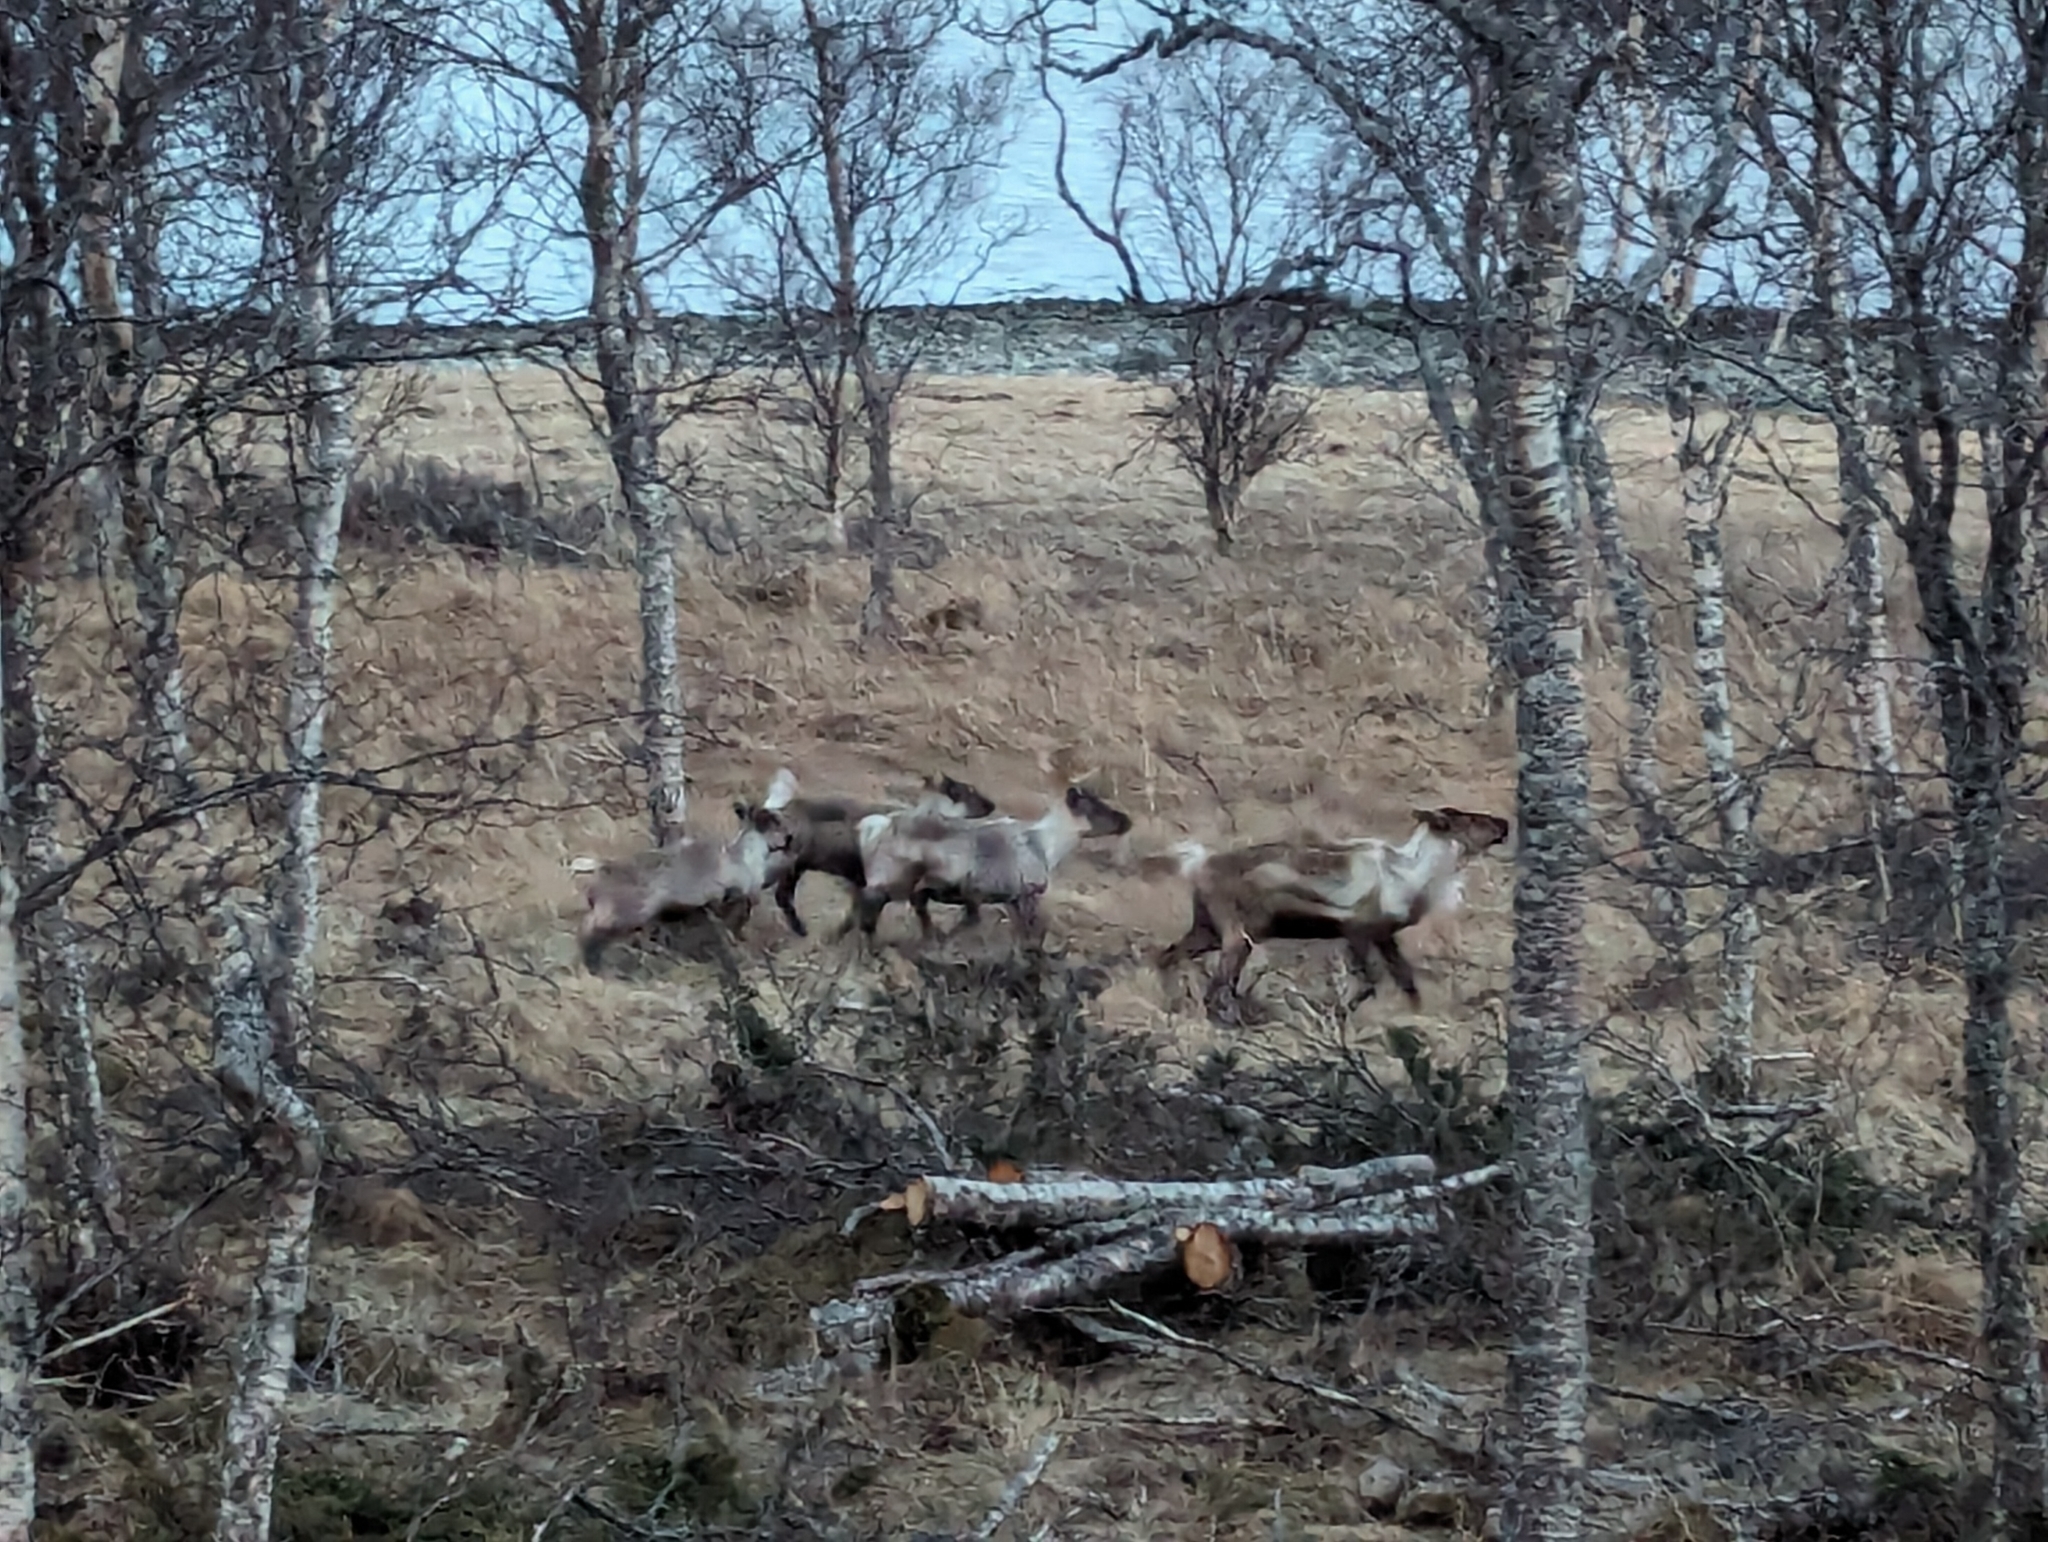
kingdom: Animalia
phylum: Chordata
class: Mammalia
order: Artiodactyla
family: Cervidae
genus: Rangifer
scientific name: Rangifer tarandus
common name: Reindeer
